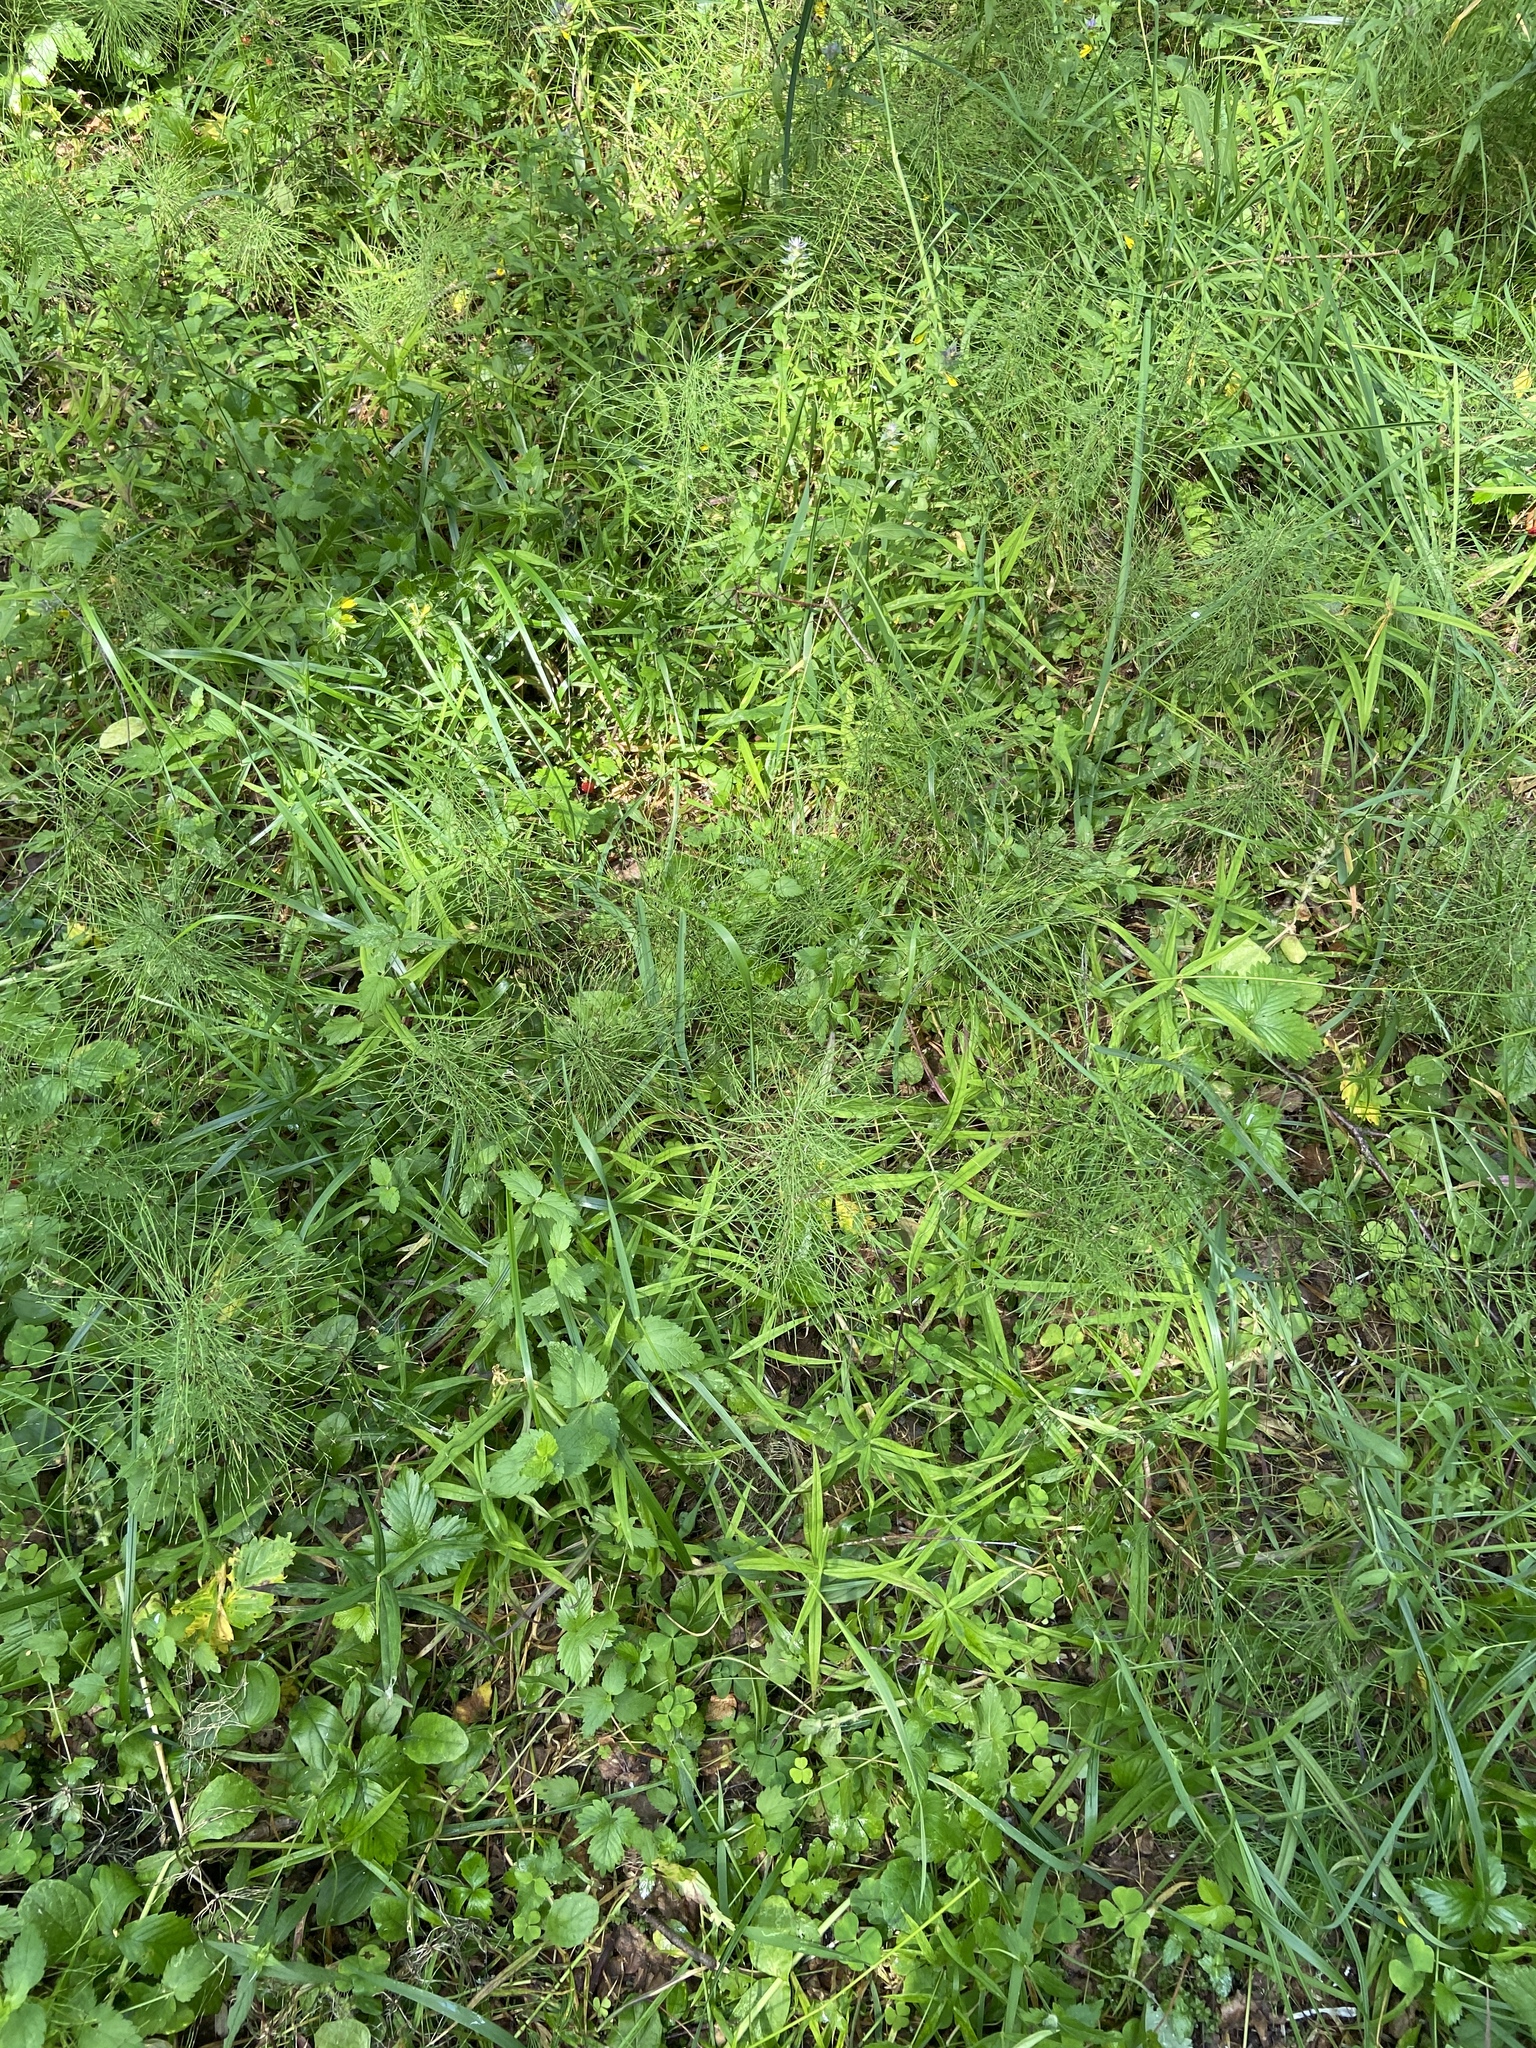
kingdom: Plantae
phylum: Tracheophyta
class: Magnoliopsida
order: Caryophyllales
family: Caryophyllaceae
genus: Rabelera
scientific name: Rabelera holostea
